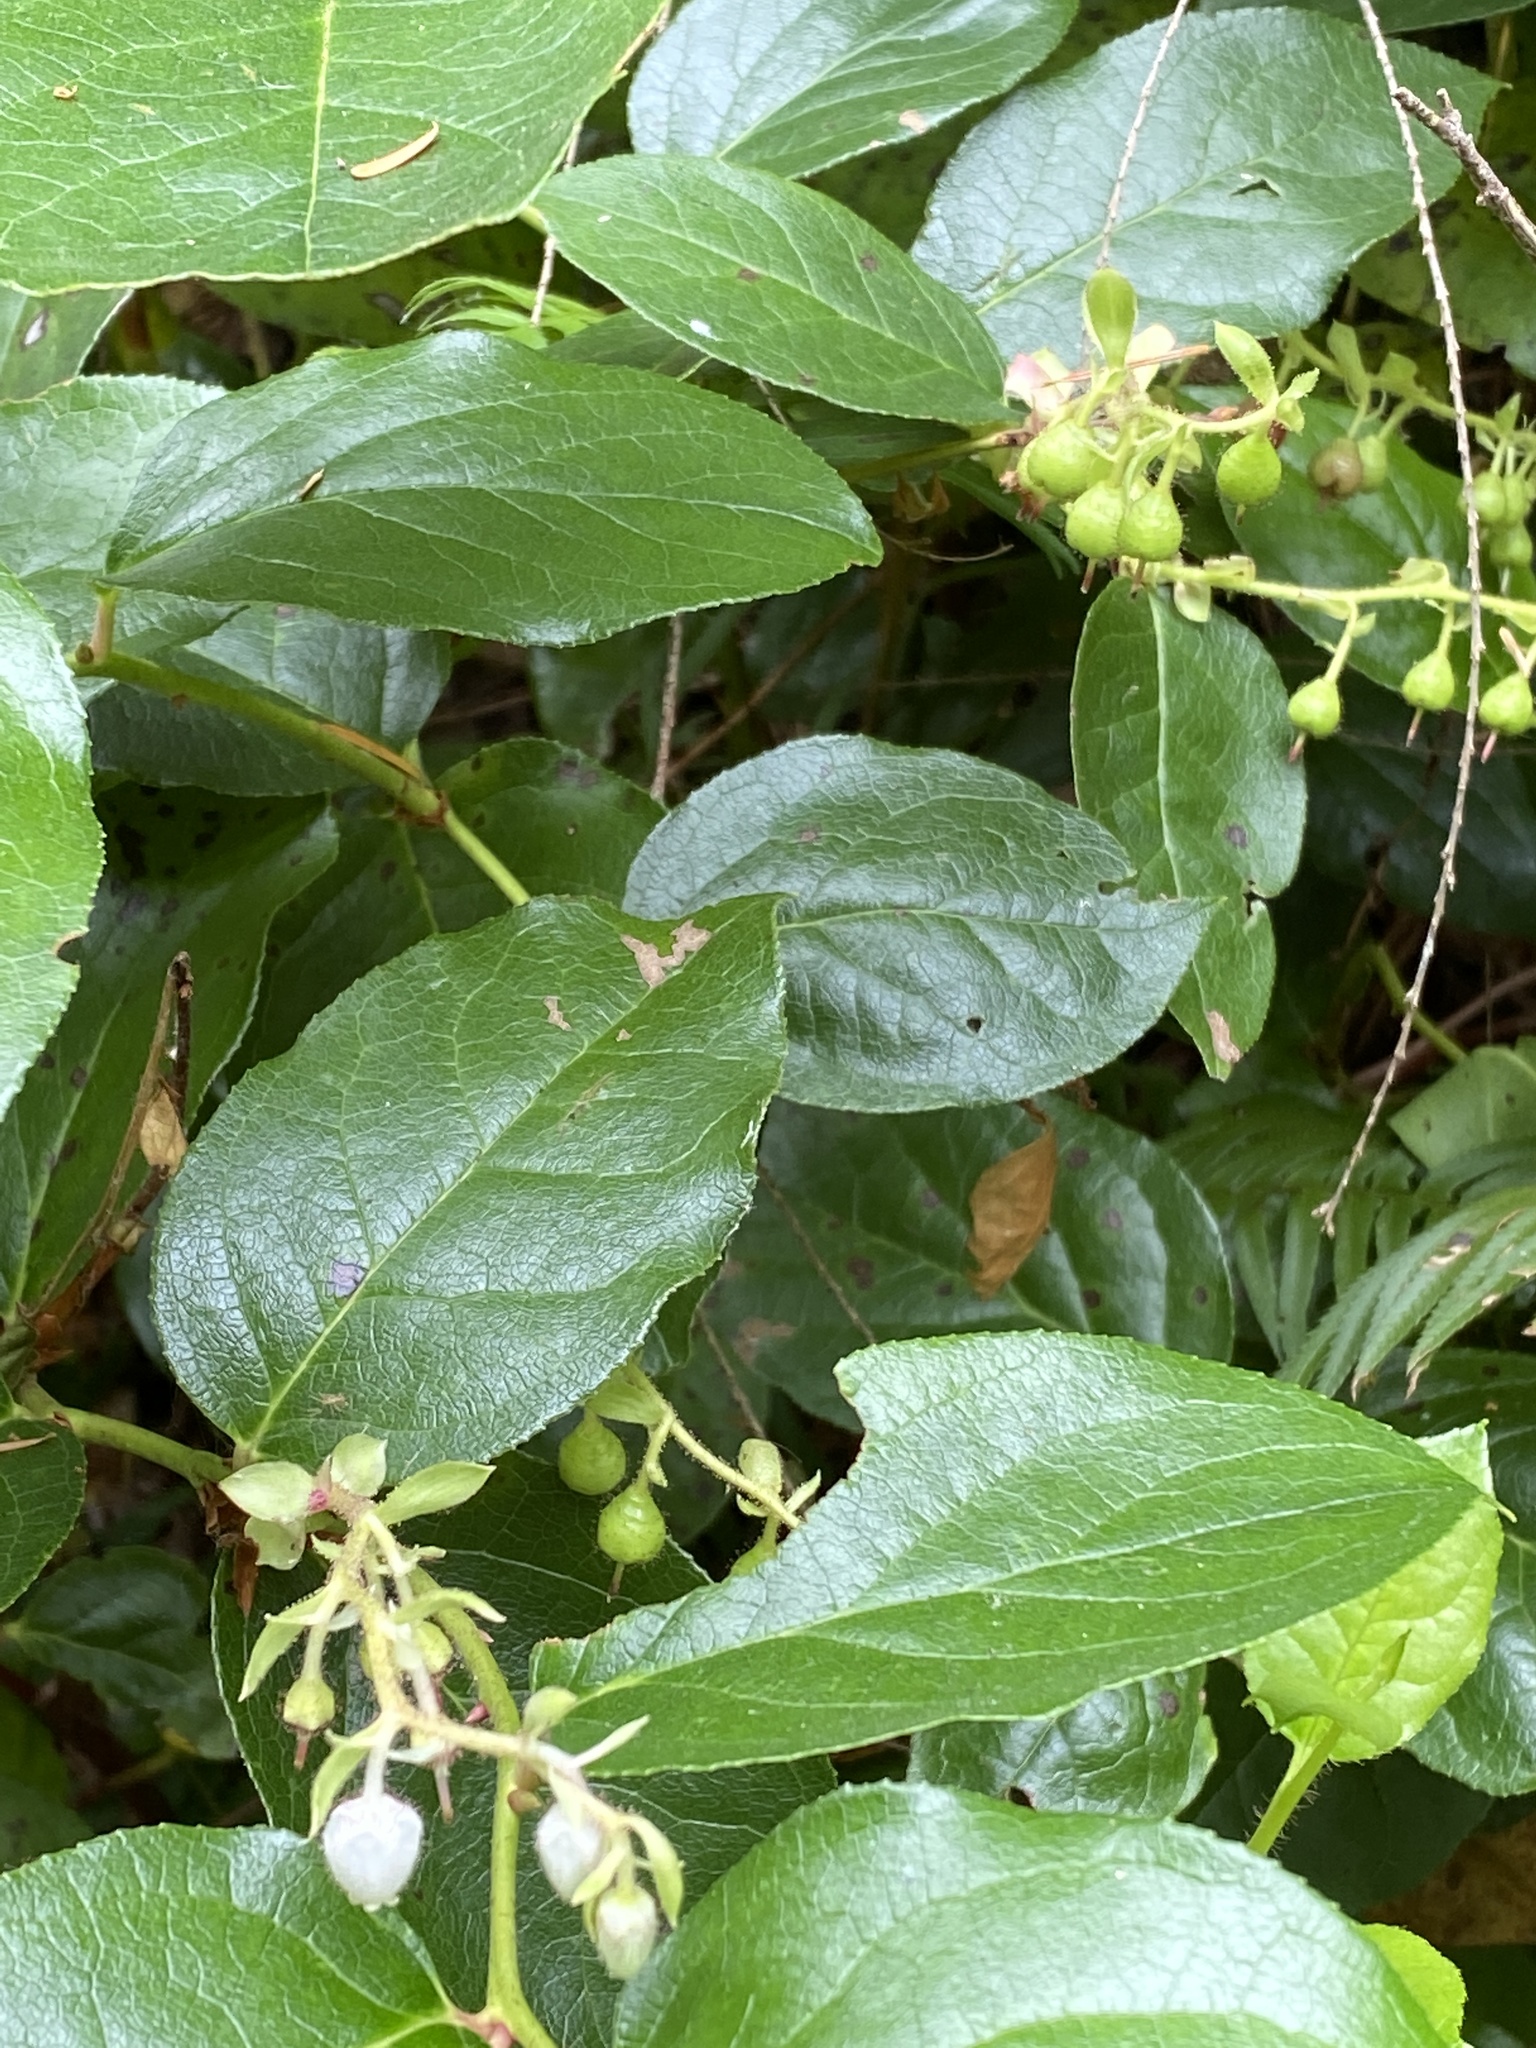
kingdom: Plantae
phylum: Tracheophyta
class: Magnoliopsida
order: Ericales
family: Ericaceae
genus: Gaultheria
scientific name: Gaultheria shallon
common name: Shallon
